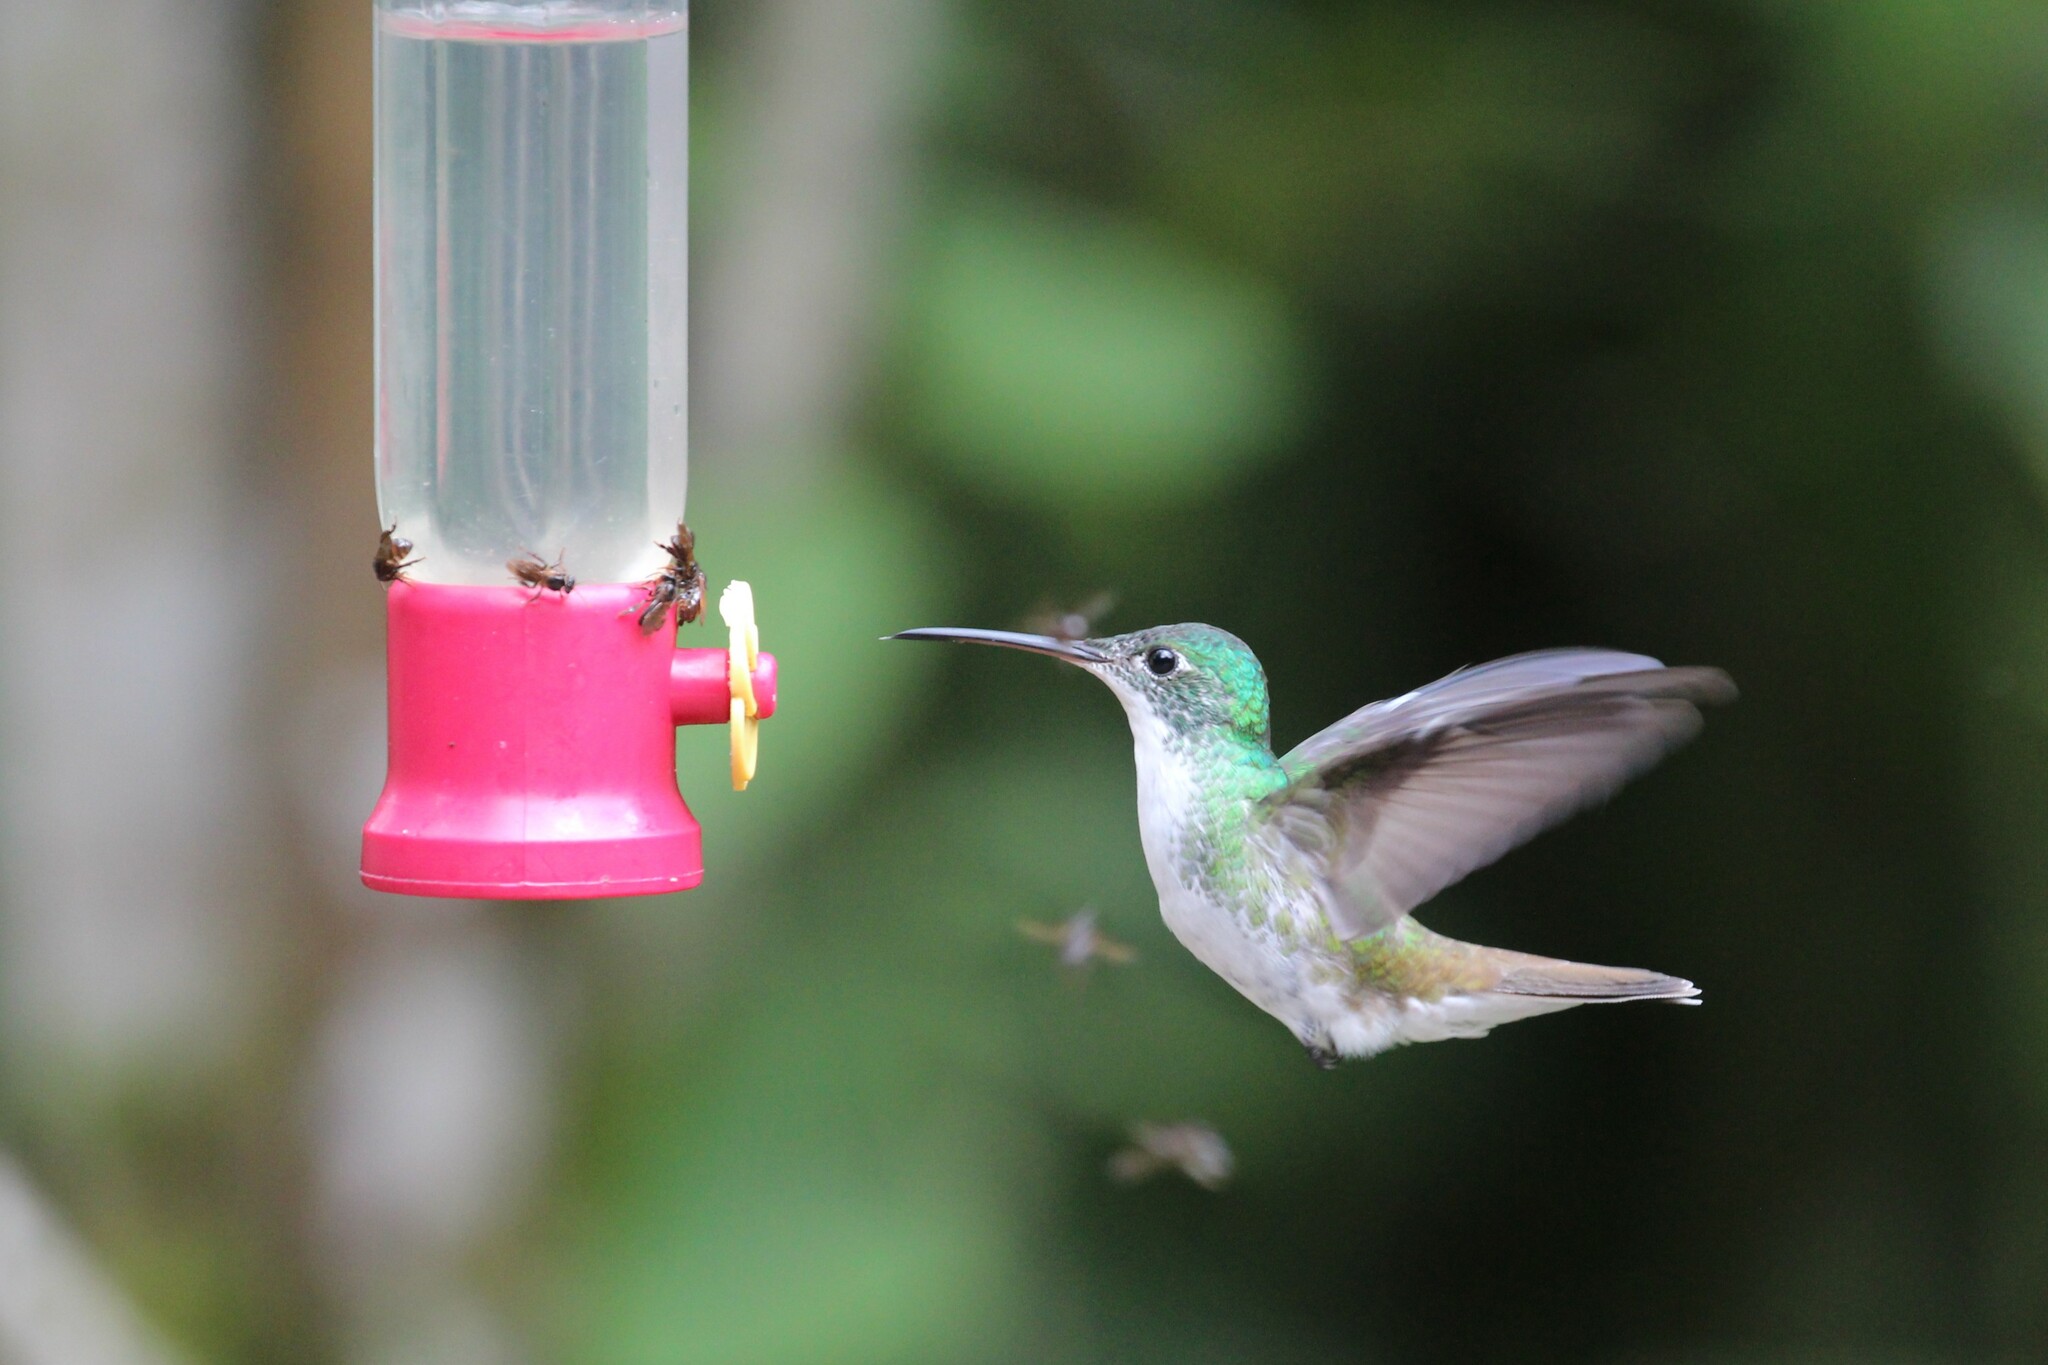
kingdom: Animalia
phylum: Chordata
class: Aves
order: Apodiformes
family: Trochilidae
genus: Uranomitra
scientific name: Uranomitra franciae
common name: Andean emerald
